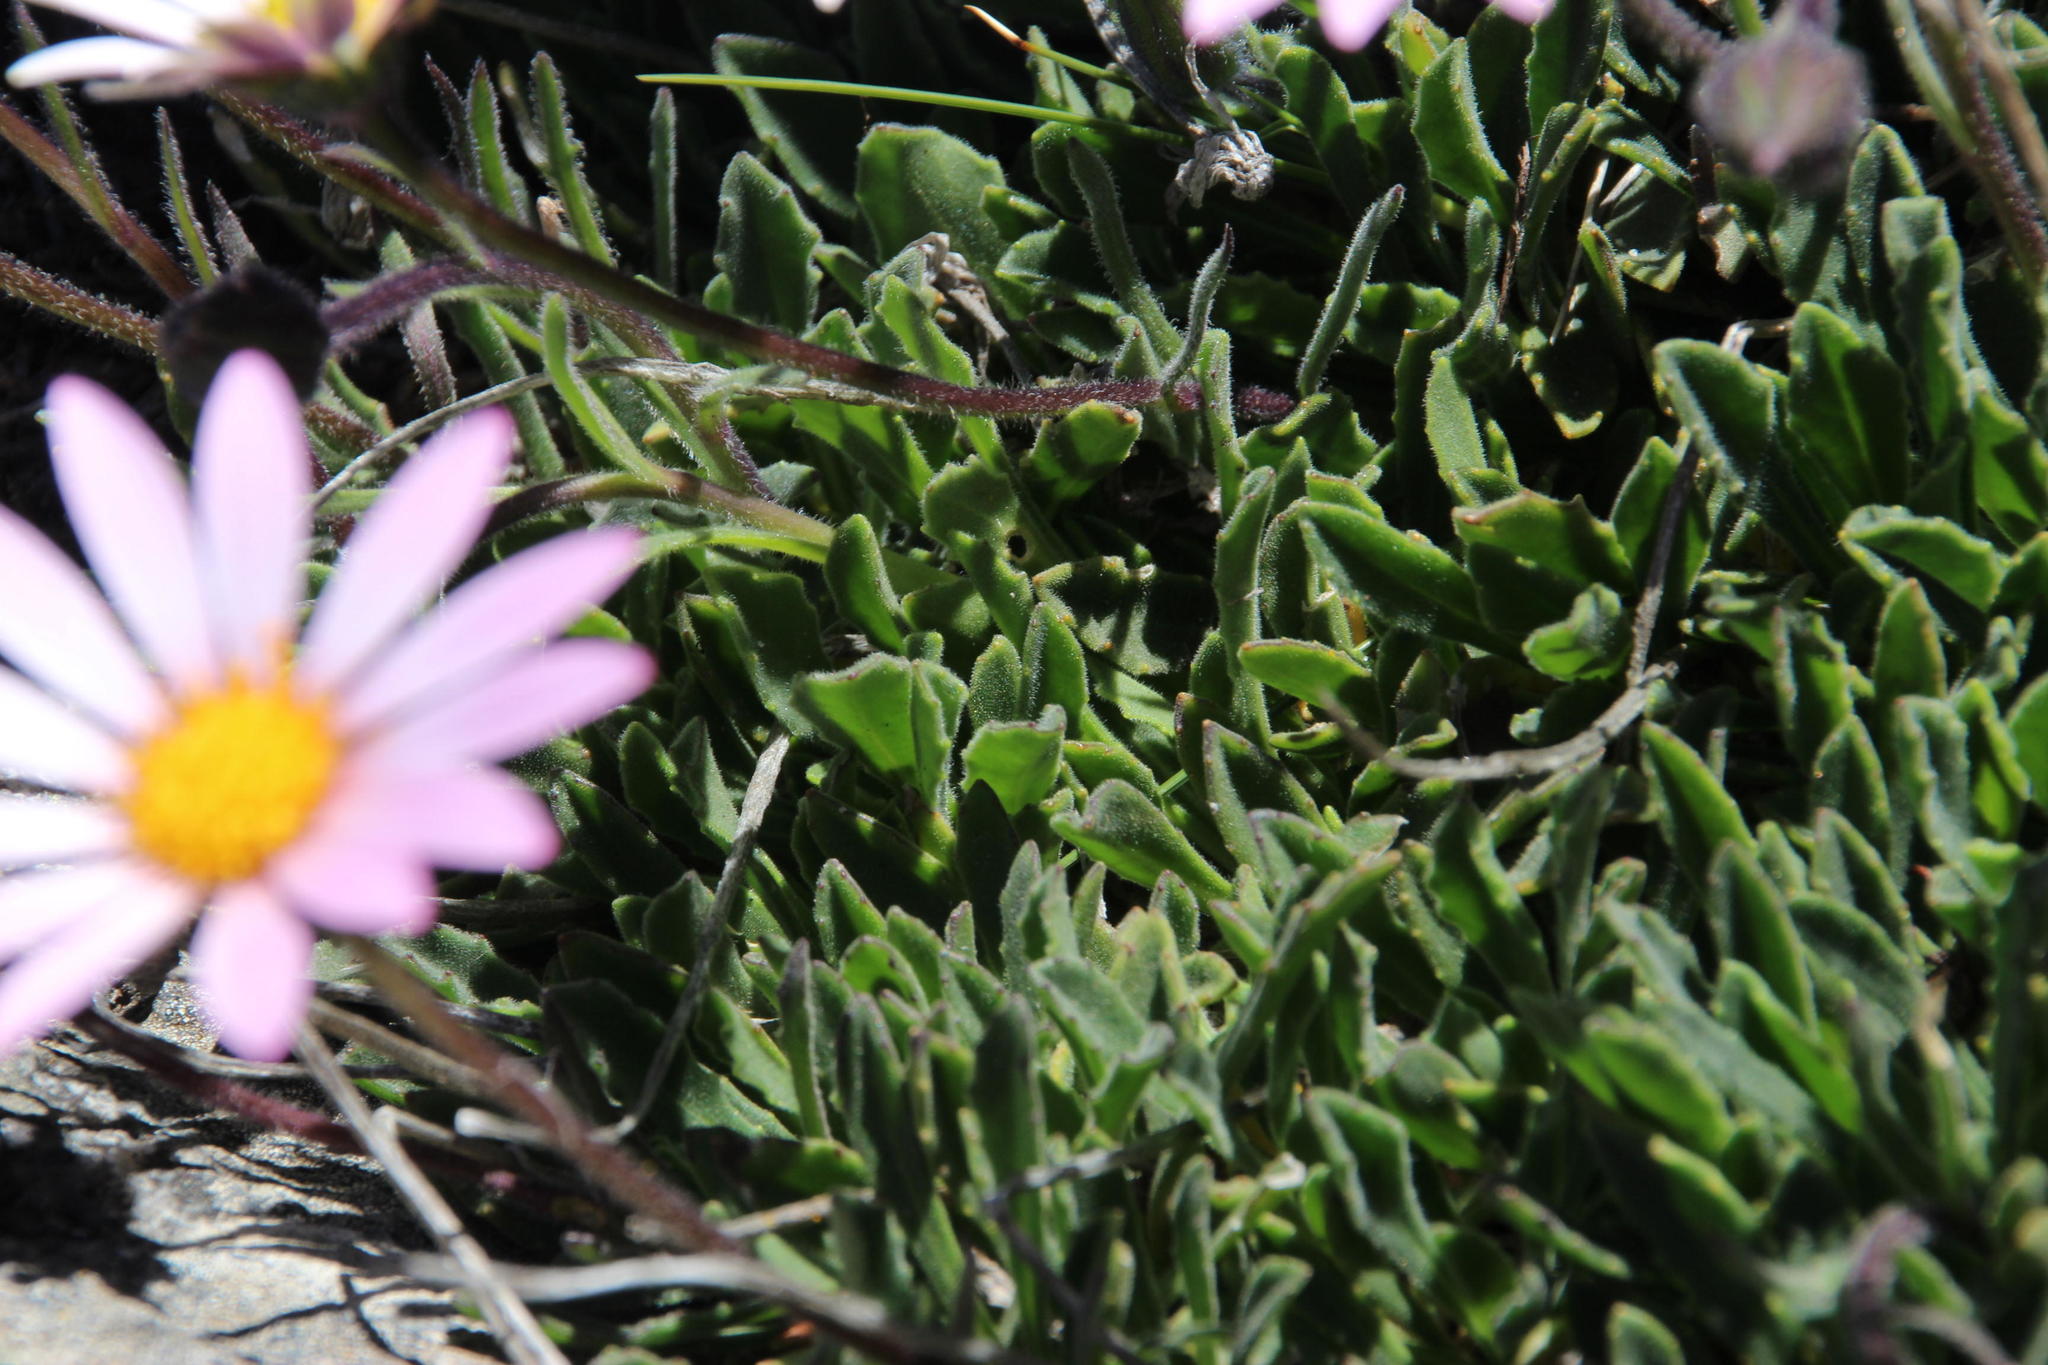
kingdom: Plantae
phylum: Tracheophyta
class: Magnoliopsida
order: Asterales
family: Asteraceae
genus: Dimorphotheca
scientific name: Dimorphotheca venusta
